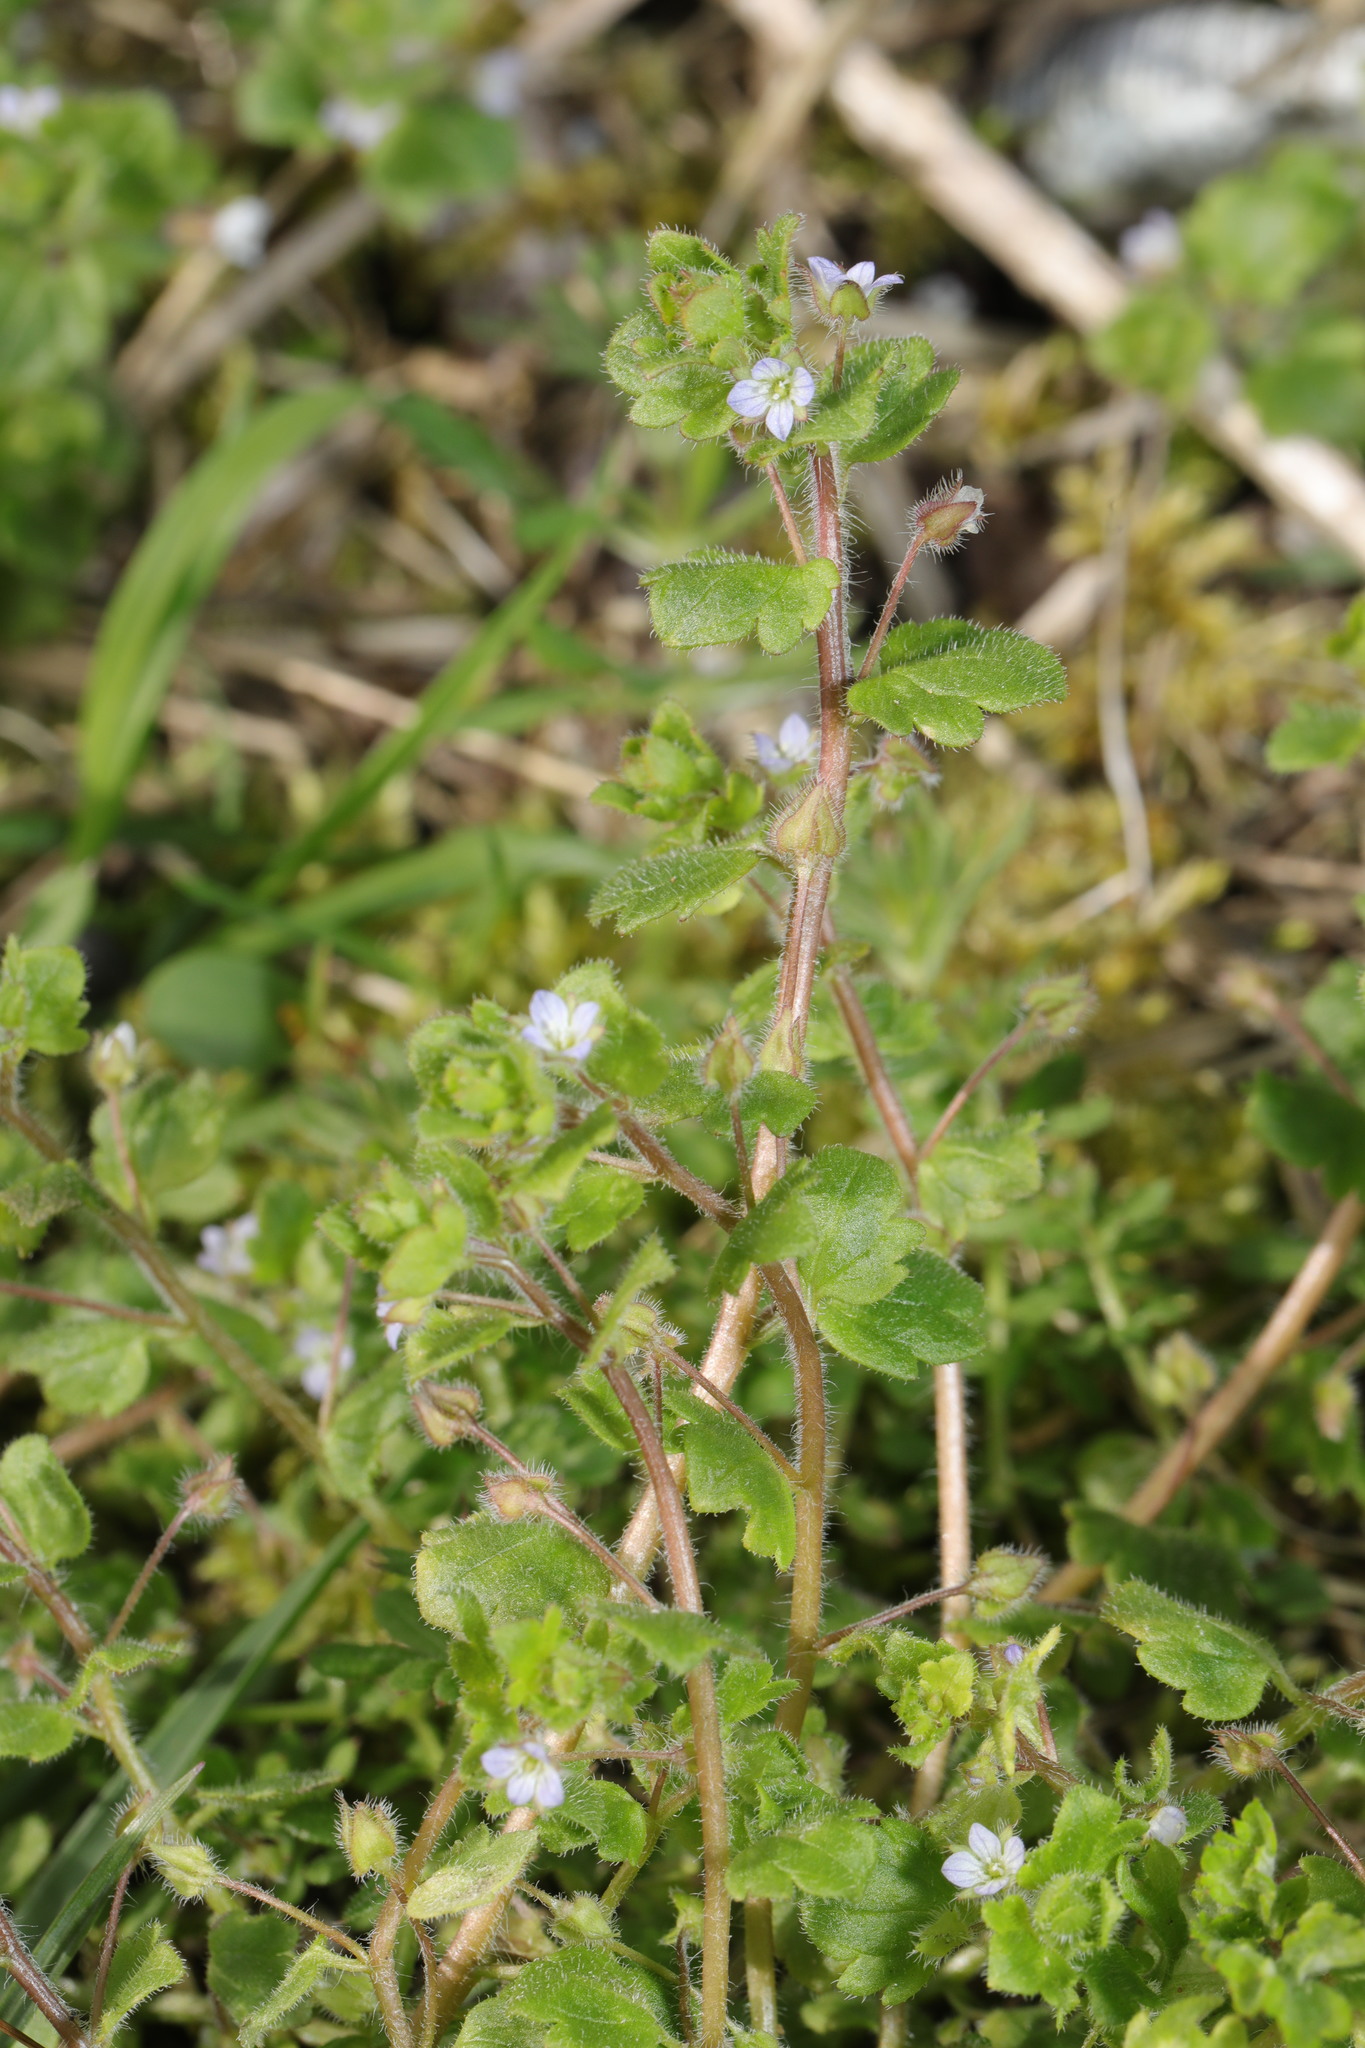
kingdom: Plantae
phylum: Tracheophyta
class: Magnoliopsida
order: Lamiales
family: Plantaginaceae
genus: Veronica
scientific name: Veronica sublobata
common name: False ivy-leaved speedwell
